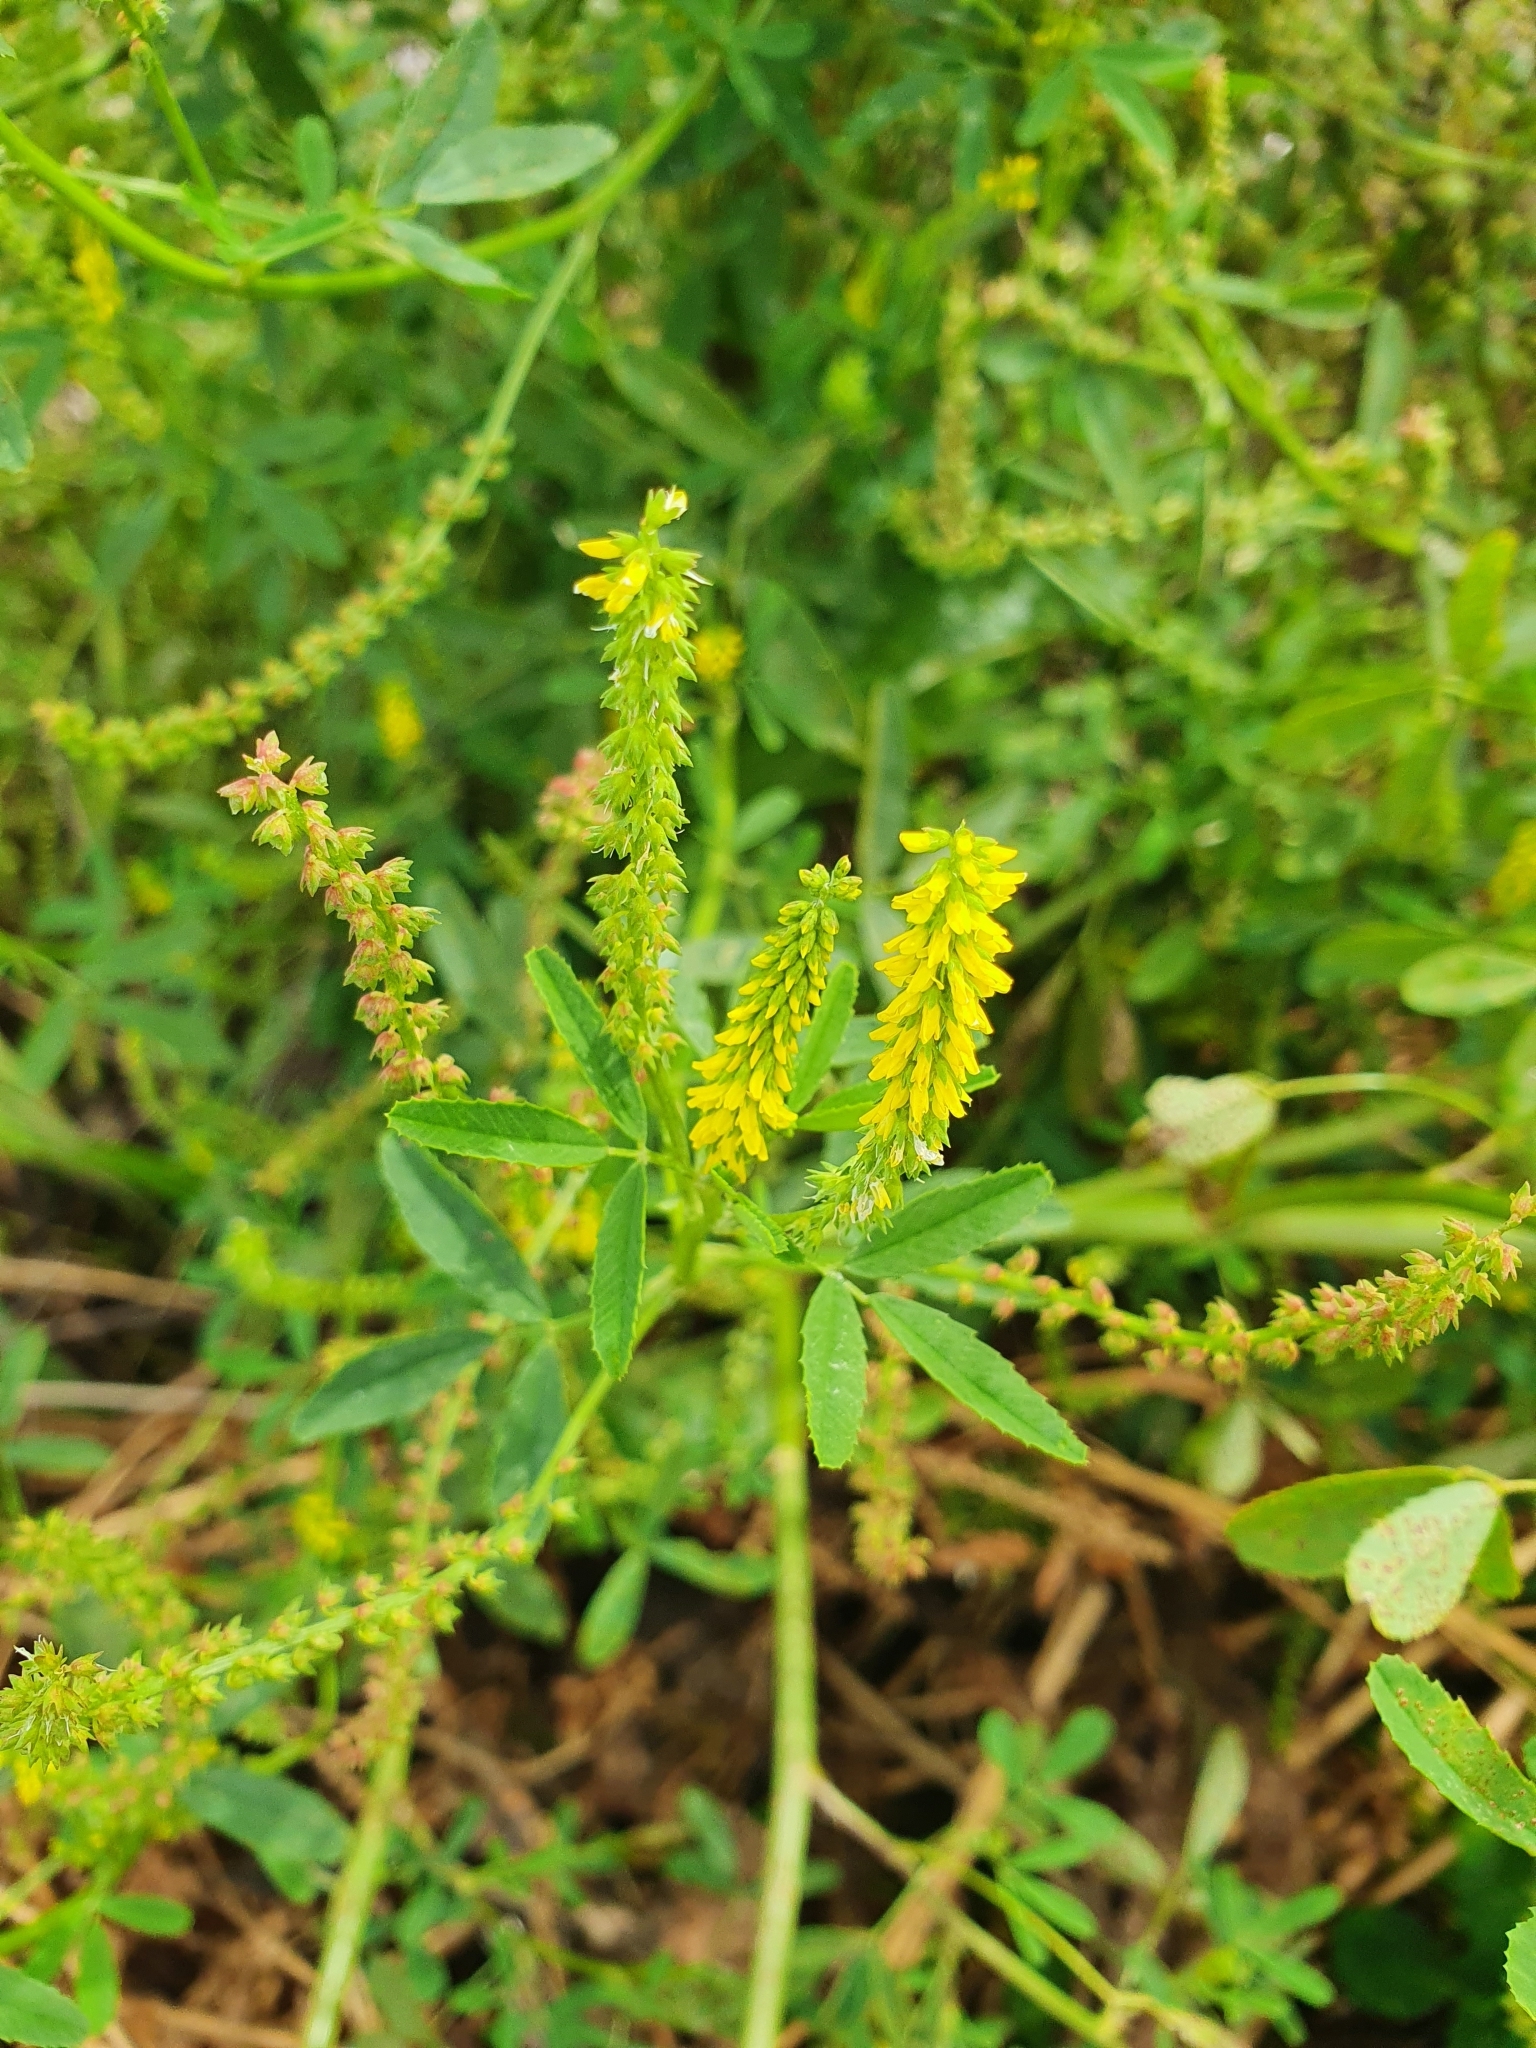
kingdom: Plantae
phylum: Tracheophyta
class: Magnoliopsida
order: Fabales
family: Fabaceae
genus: Melilotus
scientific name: Melilotus indicus
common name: Small melilot
